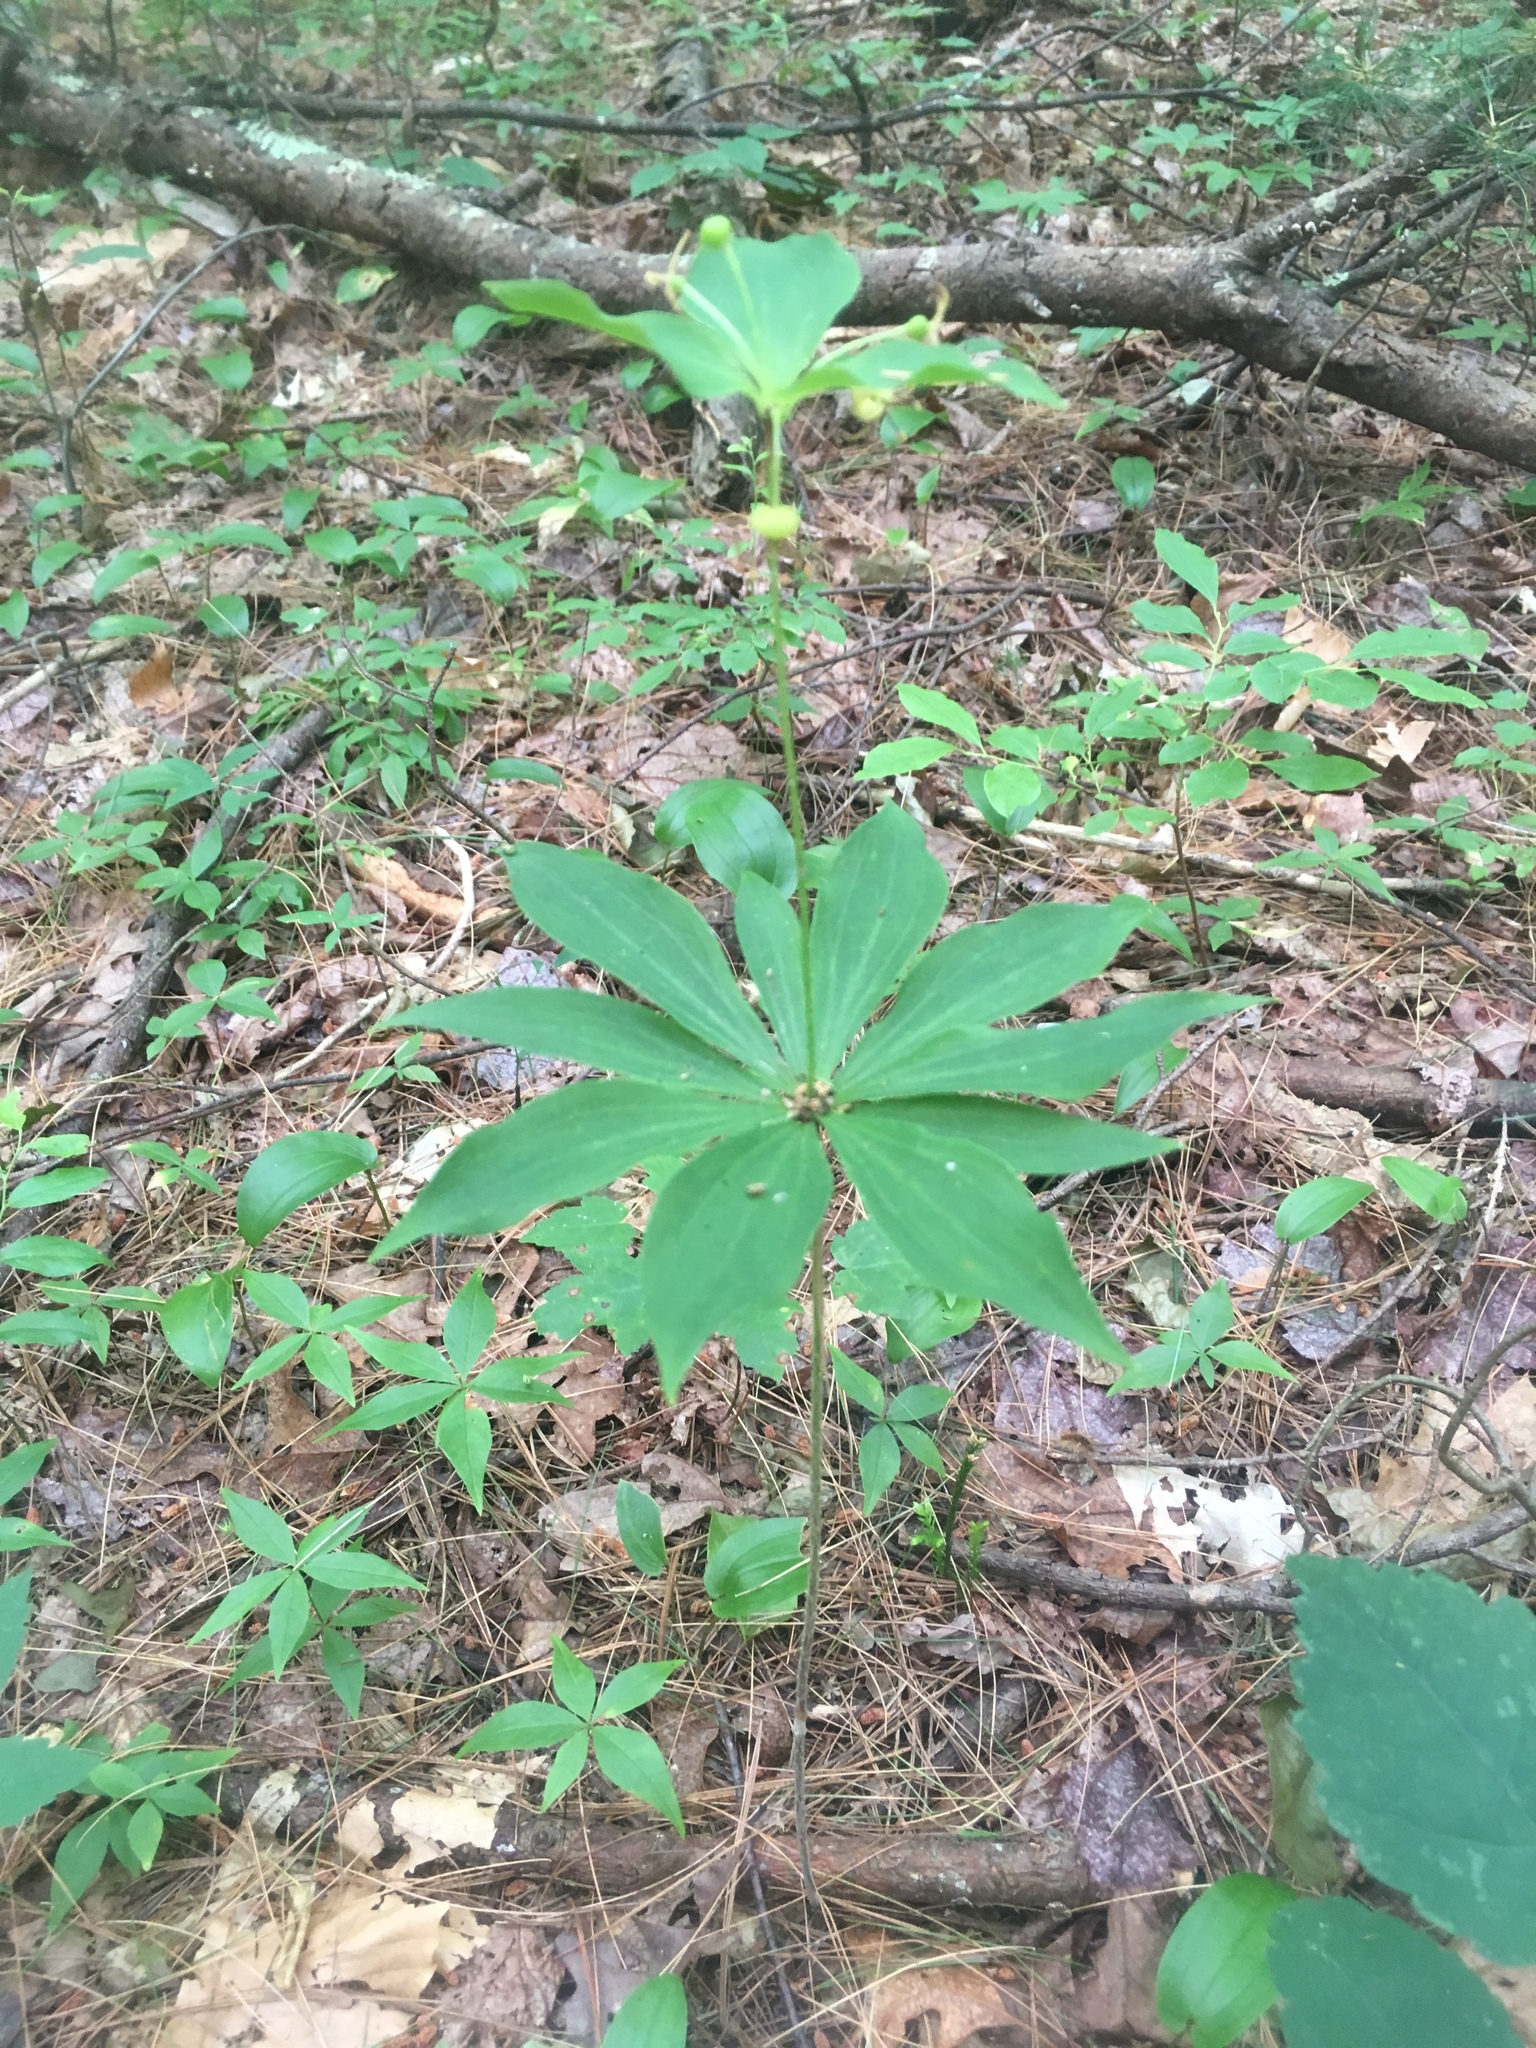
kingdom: Plantae
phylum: Tracheophyta
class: Liliopsida
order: Liliales
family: Liliaceae
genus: Medeola
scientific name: Medeola virginiana
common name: Indian cucumber-root
